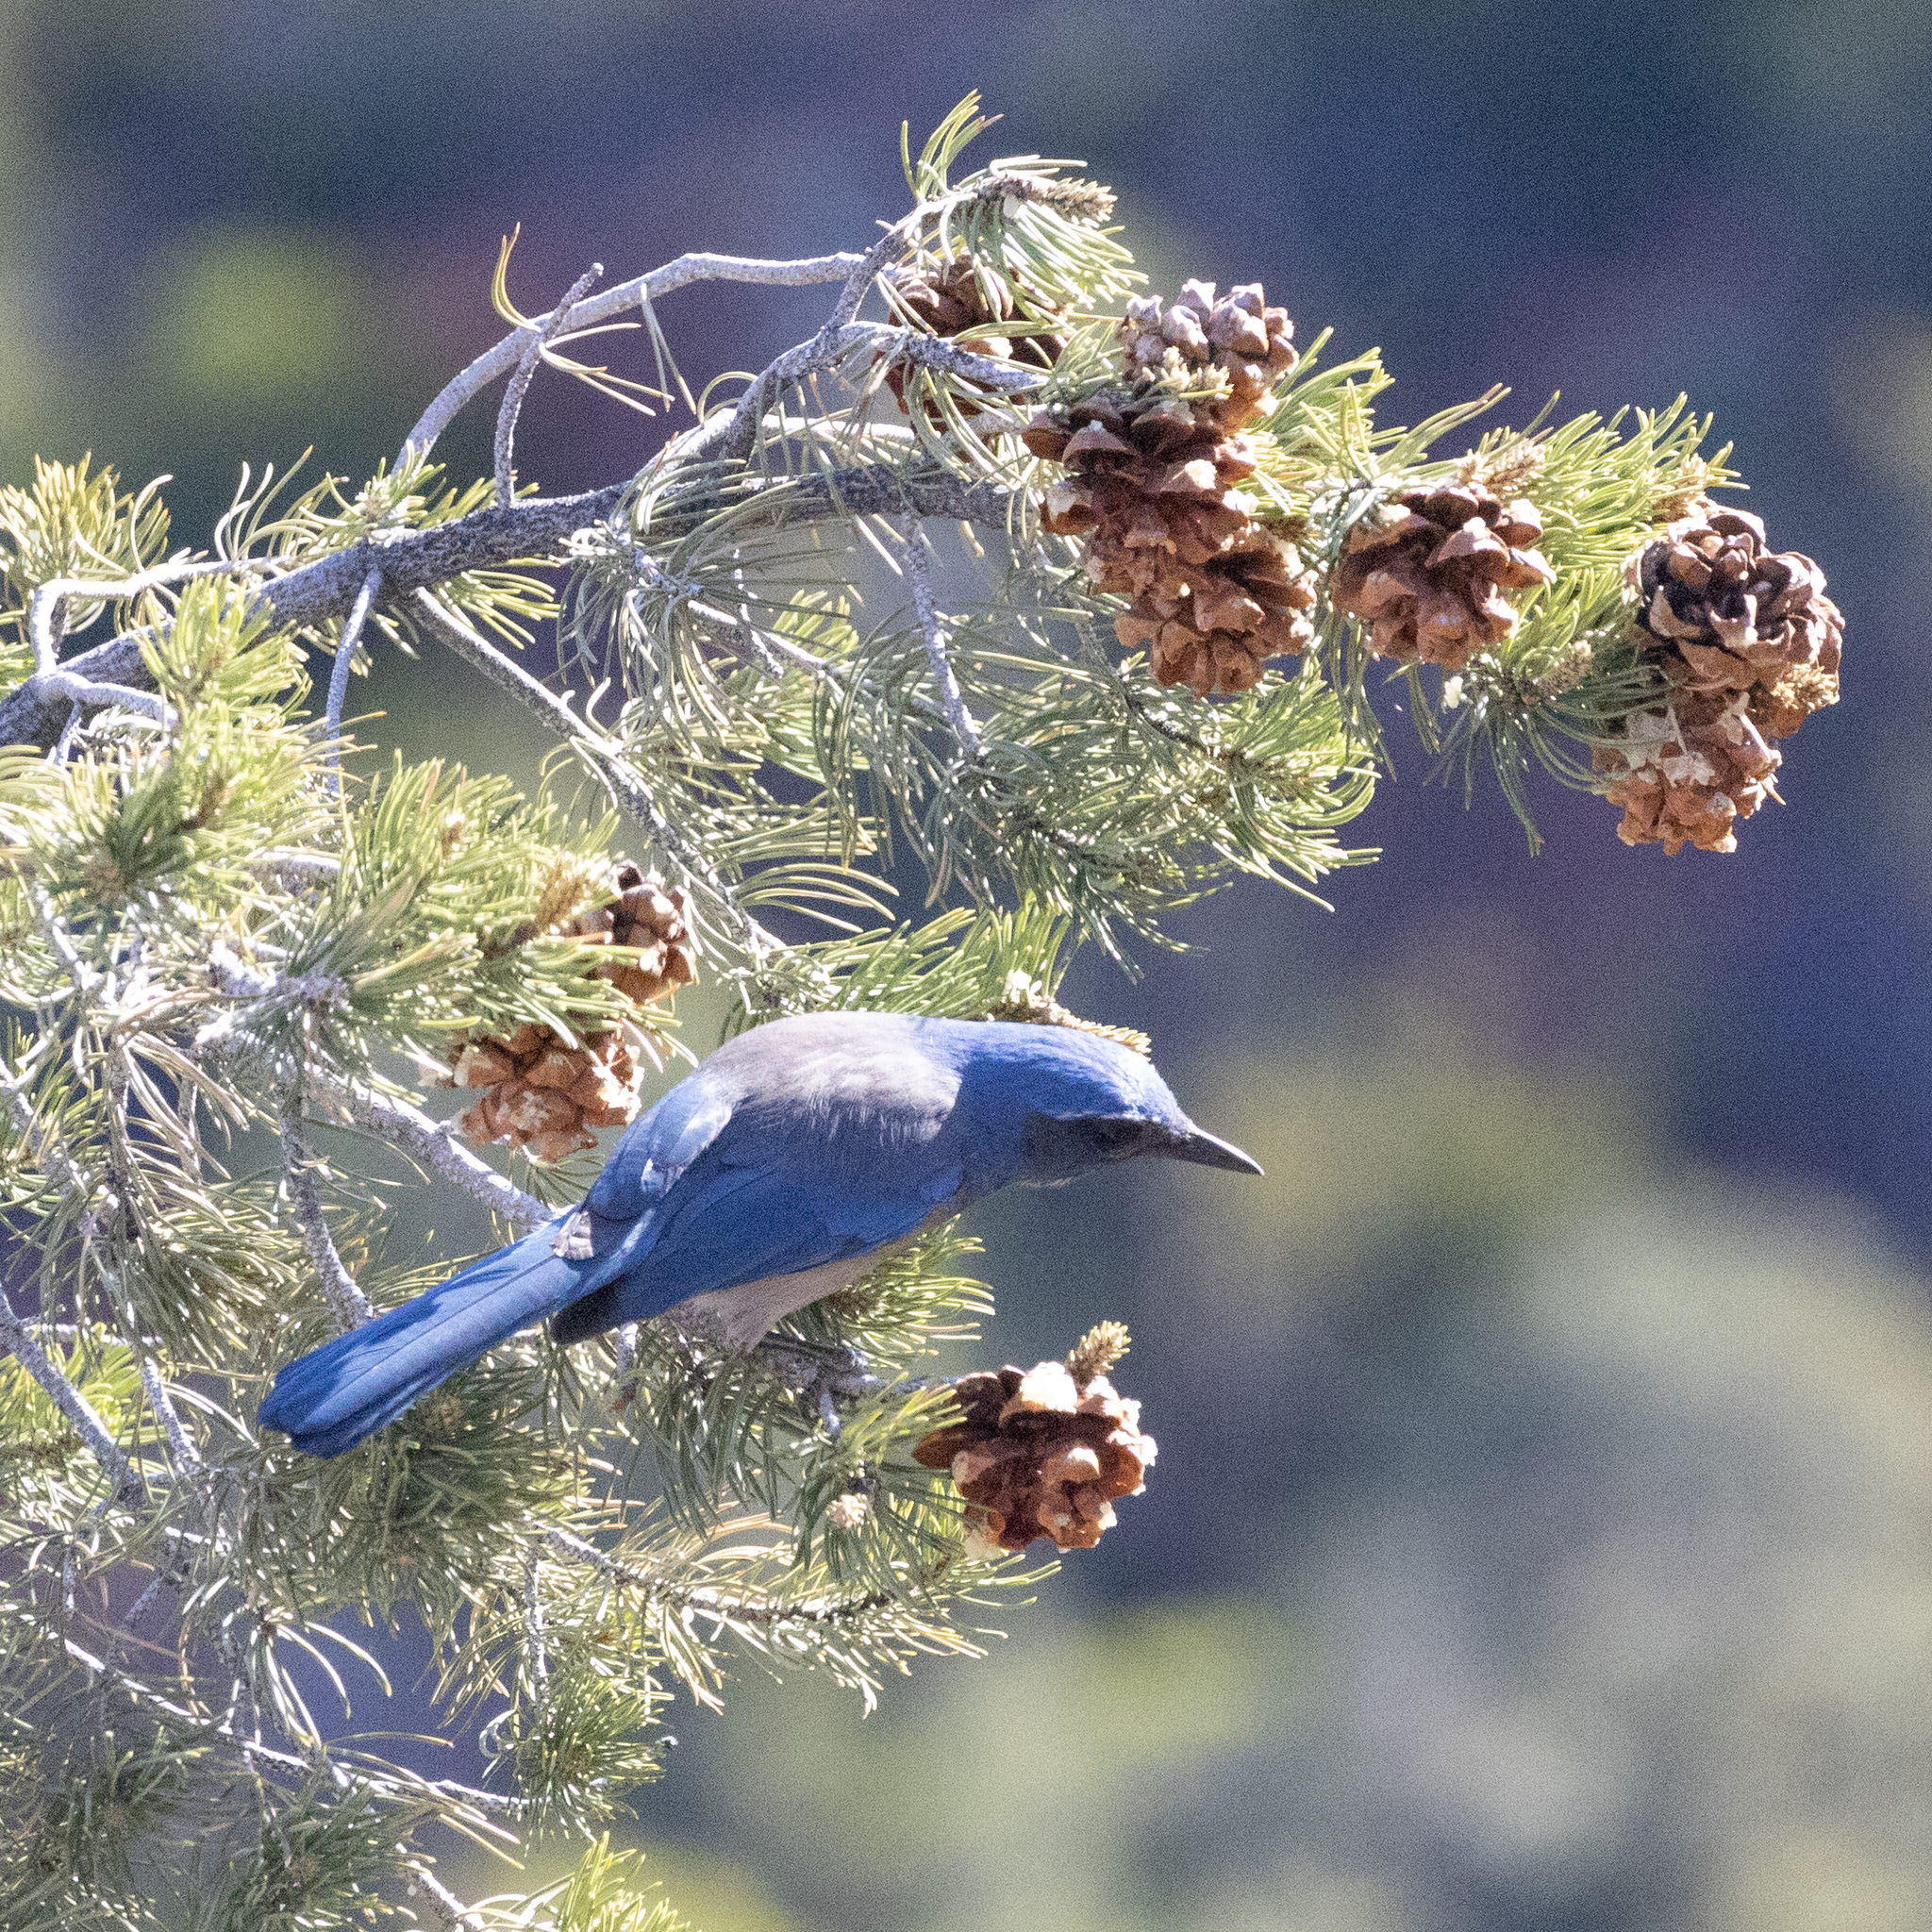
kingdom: Animalia
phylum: Chordata
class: Aves
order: Passeriformes
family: Corvidae
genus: Aphelocoma
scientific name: Aphelocoma woodhouseii
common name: Woodhouse's scrub-jay
